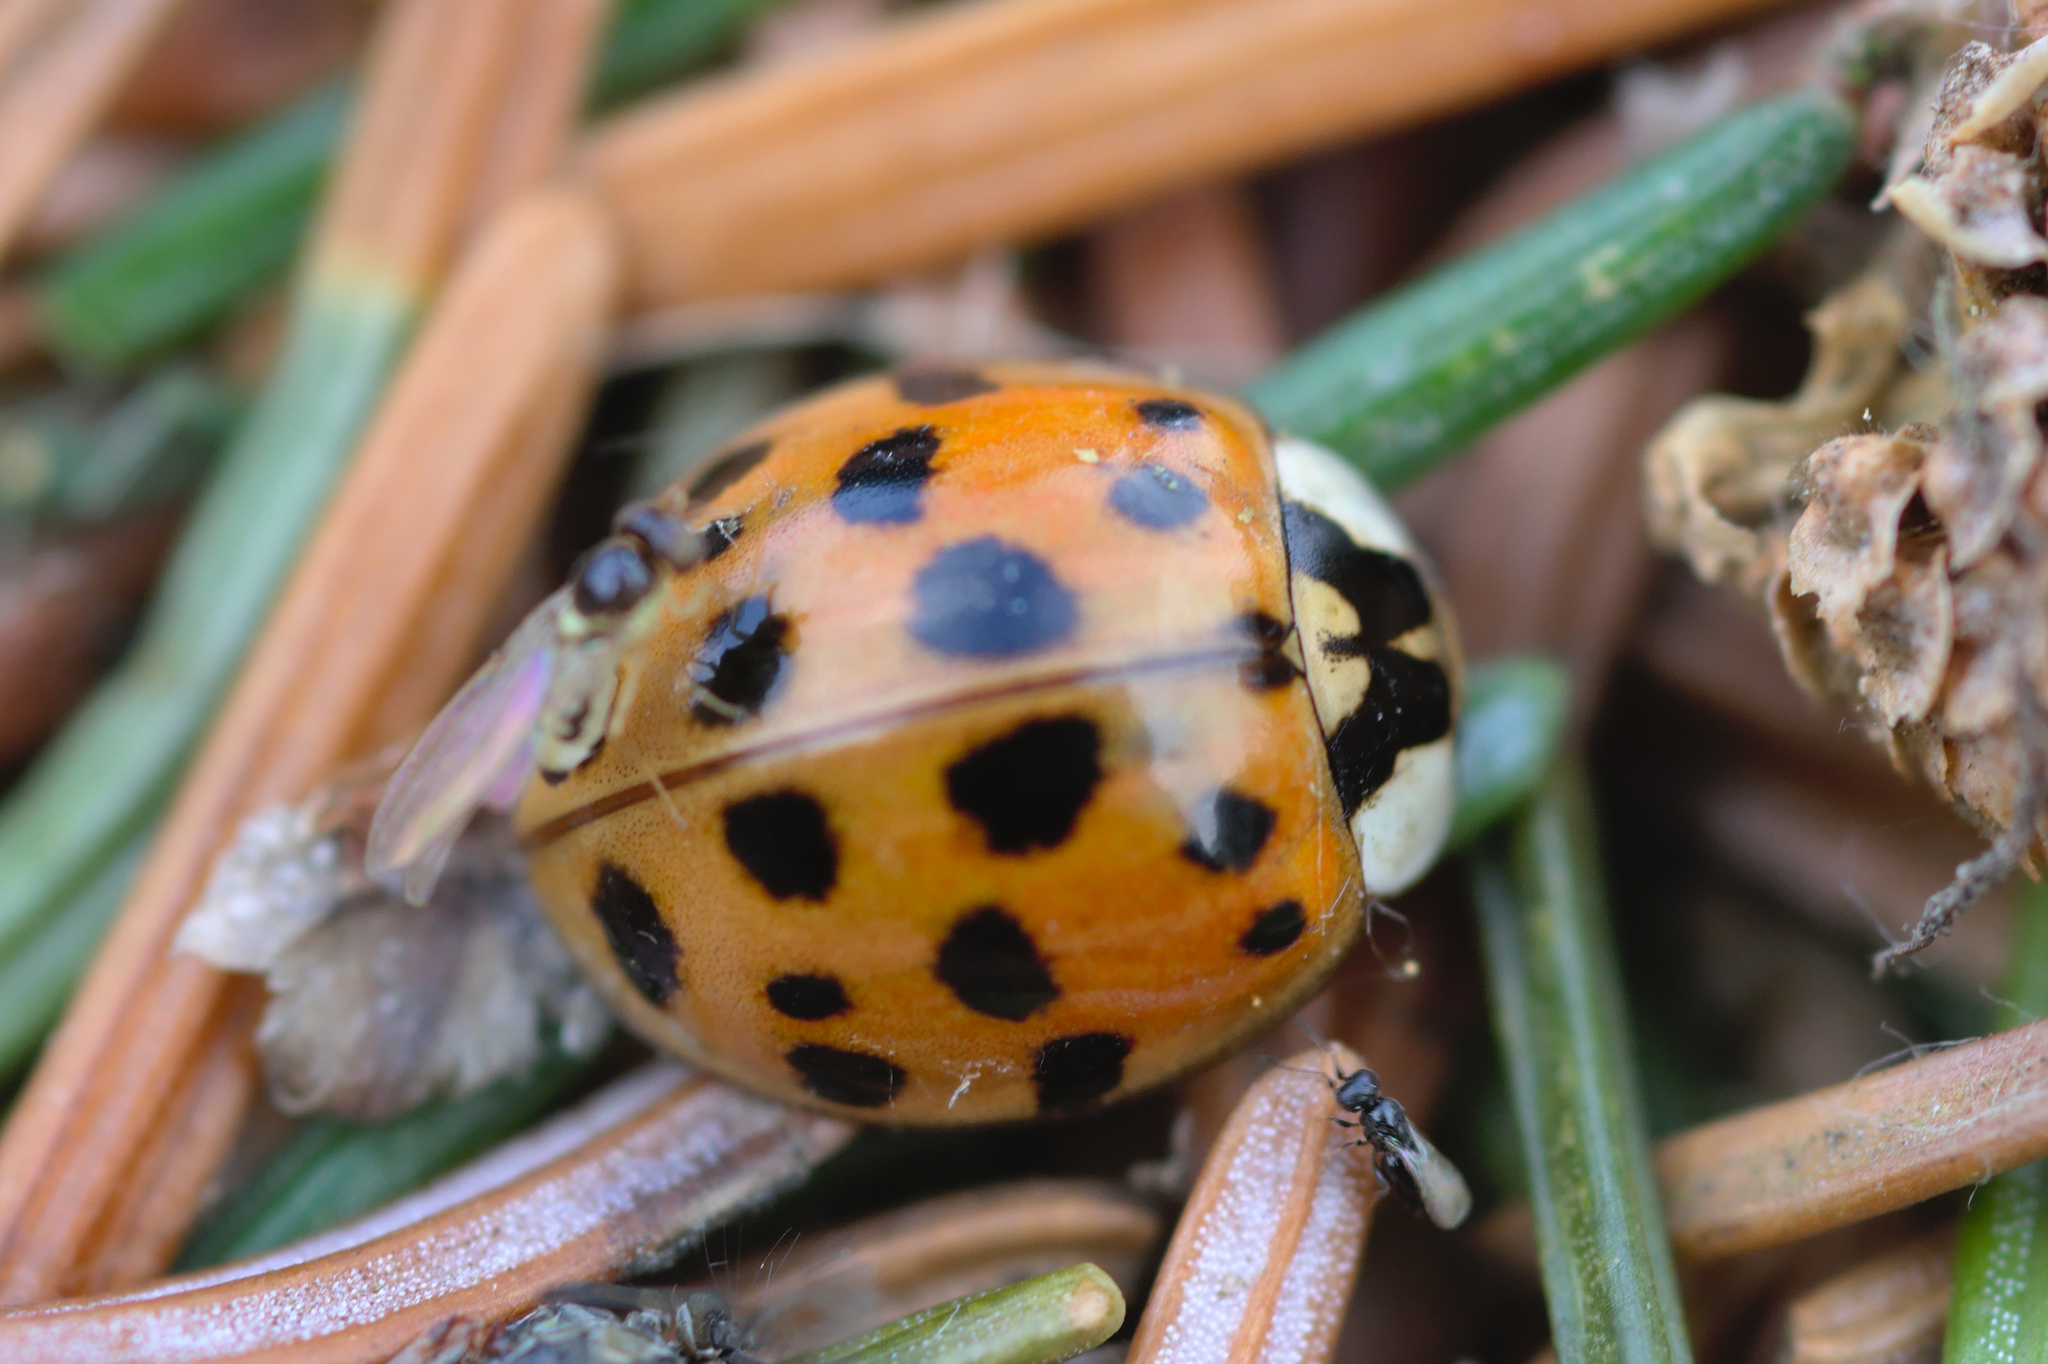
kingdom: Animalia
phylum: Arthropoda
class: Insecta
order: Coleoptera
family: Coccinellidae
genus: Harmonia
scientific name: Harmonia axyridis
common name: Harlequin ladybird
